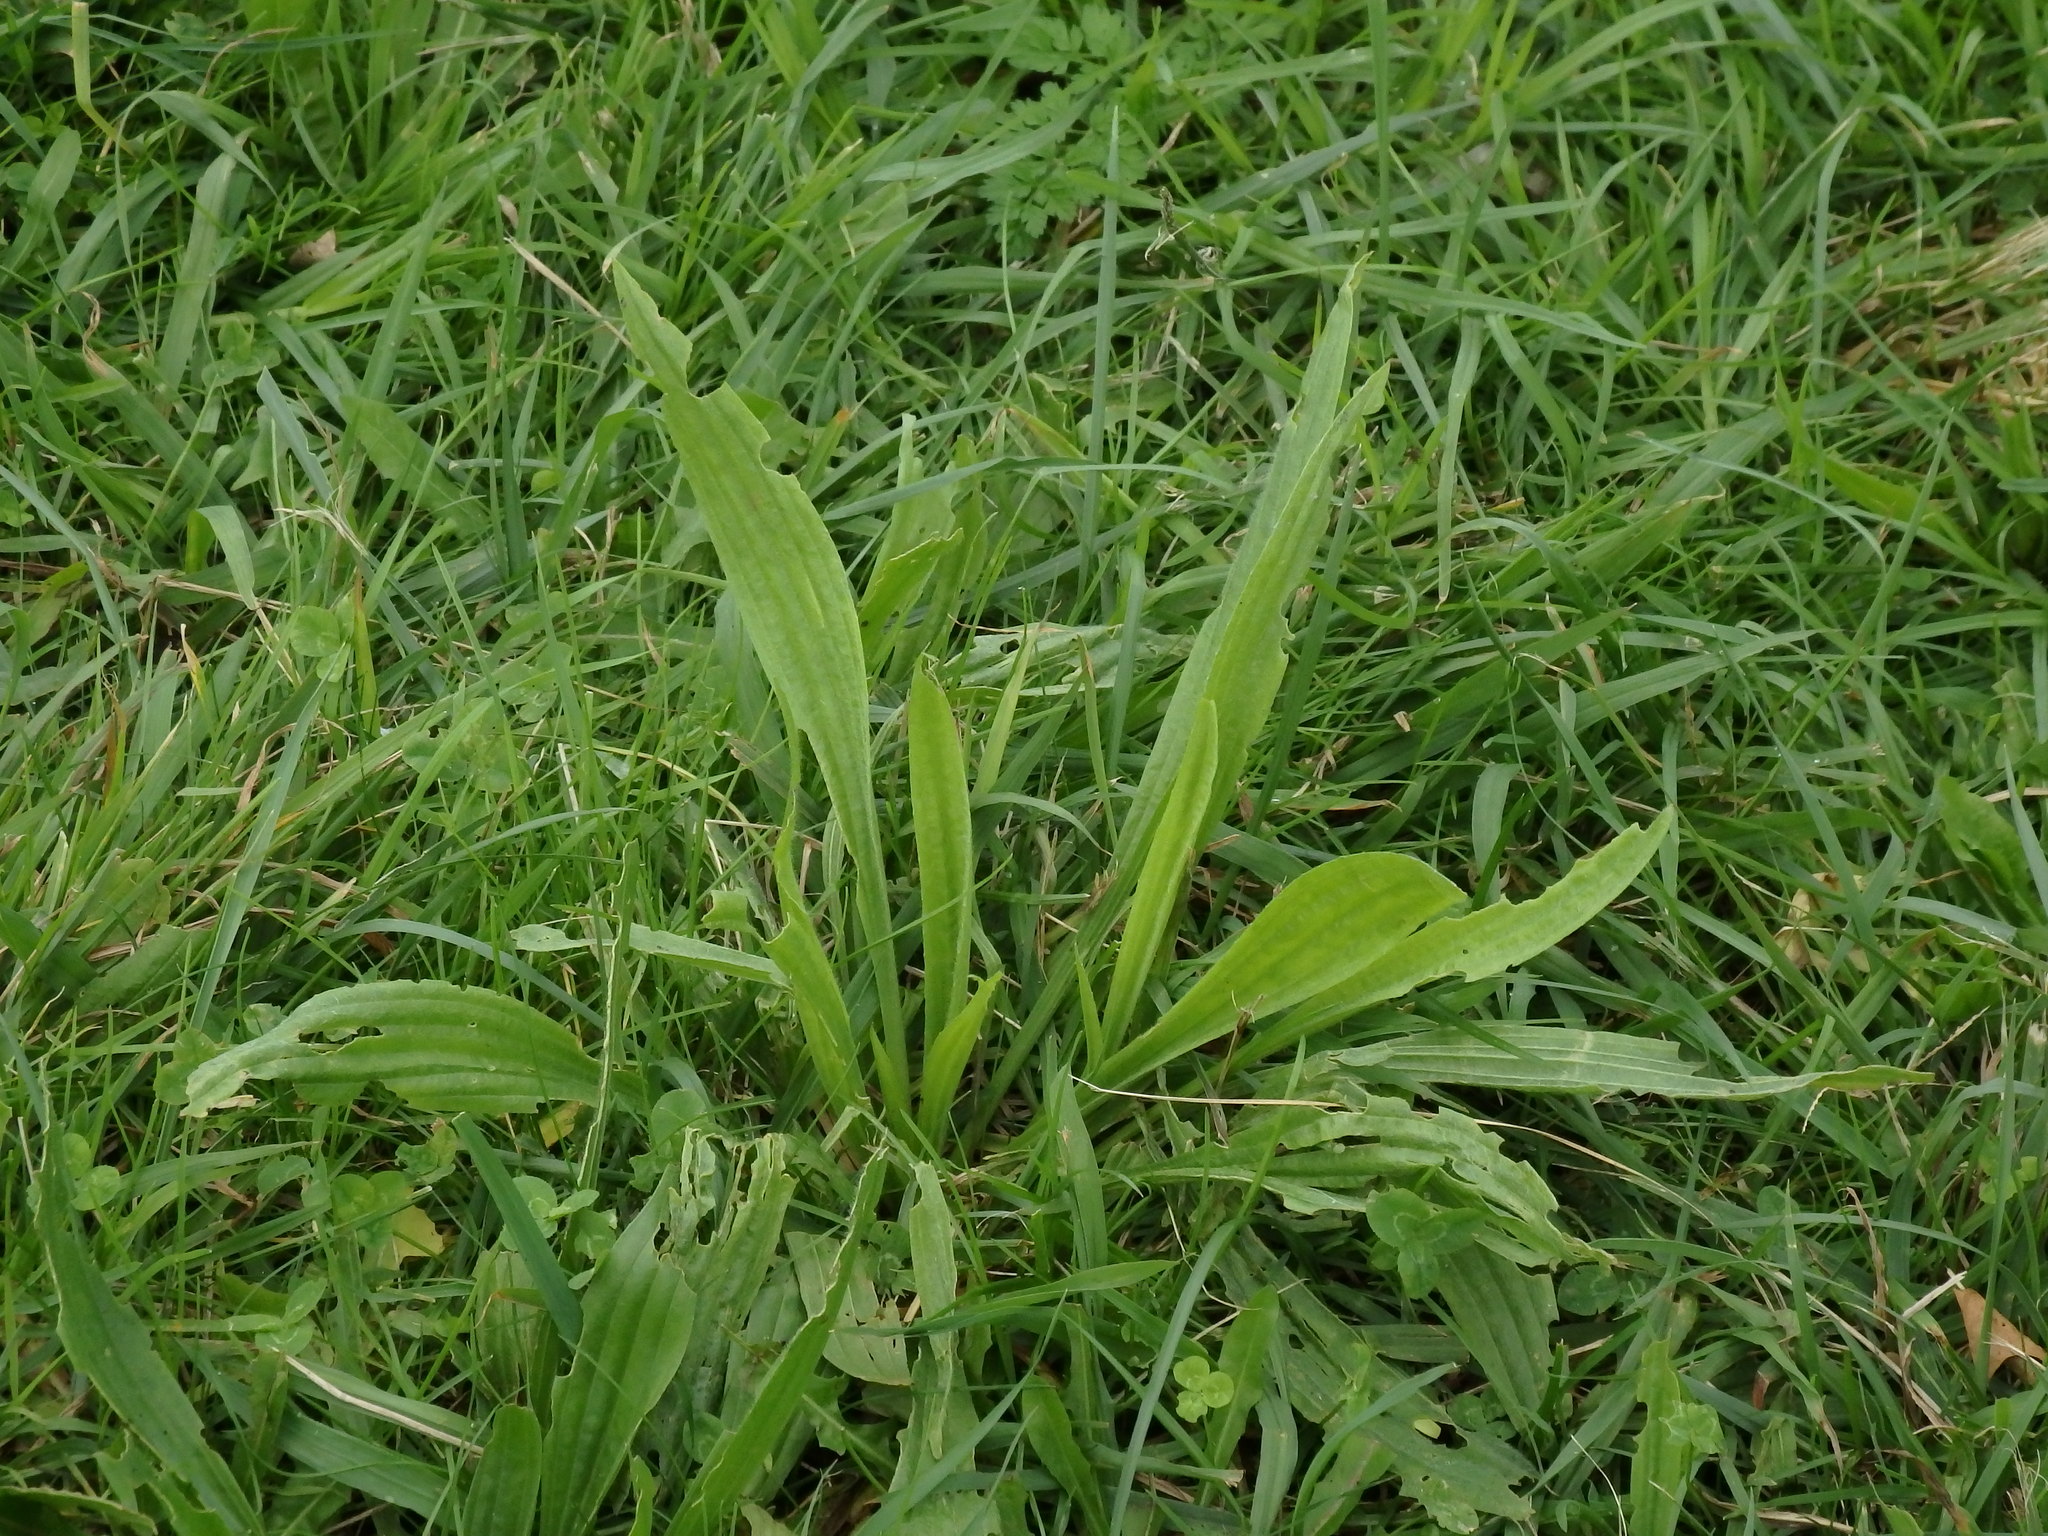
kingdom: Plantae
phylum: Tracheophyta
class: Magnoliopsida
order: Lamiales
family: Plantaginaceae
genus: Plantago
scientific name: Plantago lanceolata
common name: Ribwort plantain
